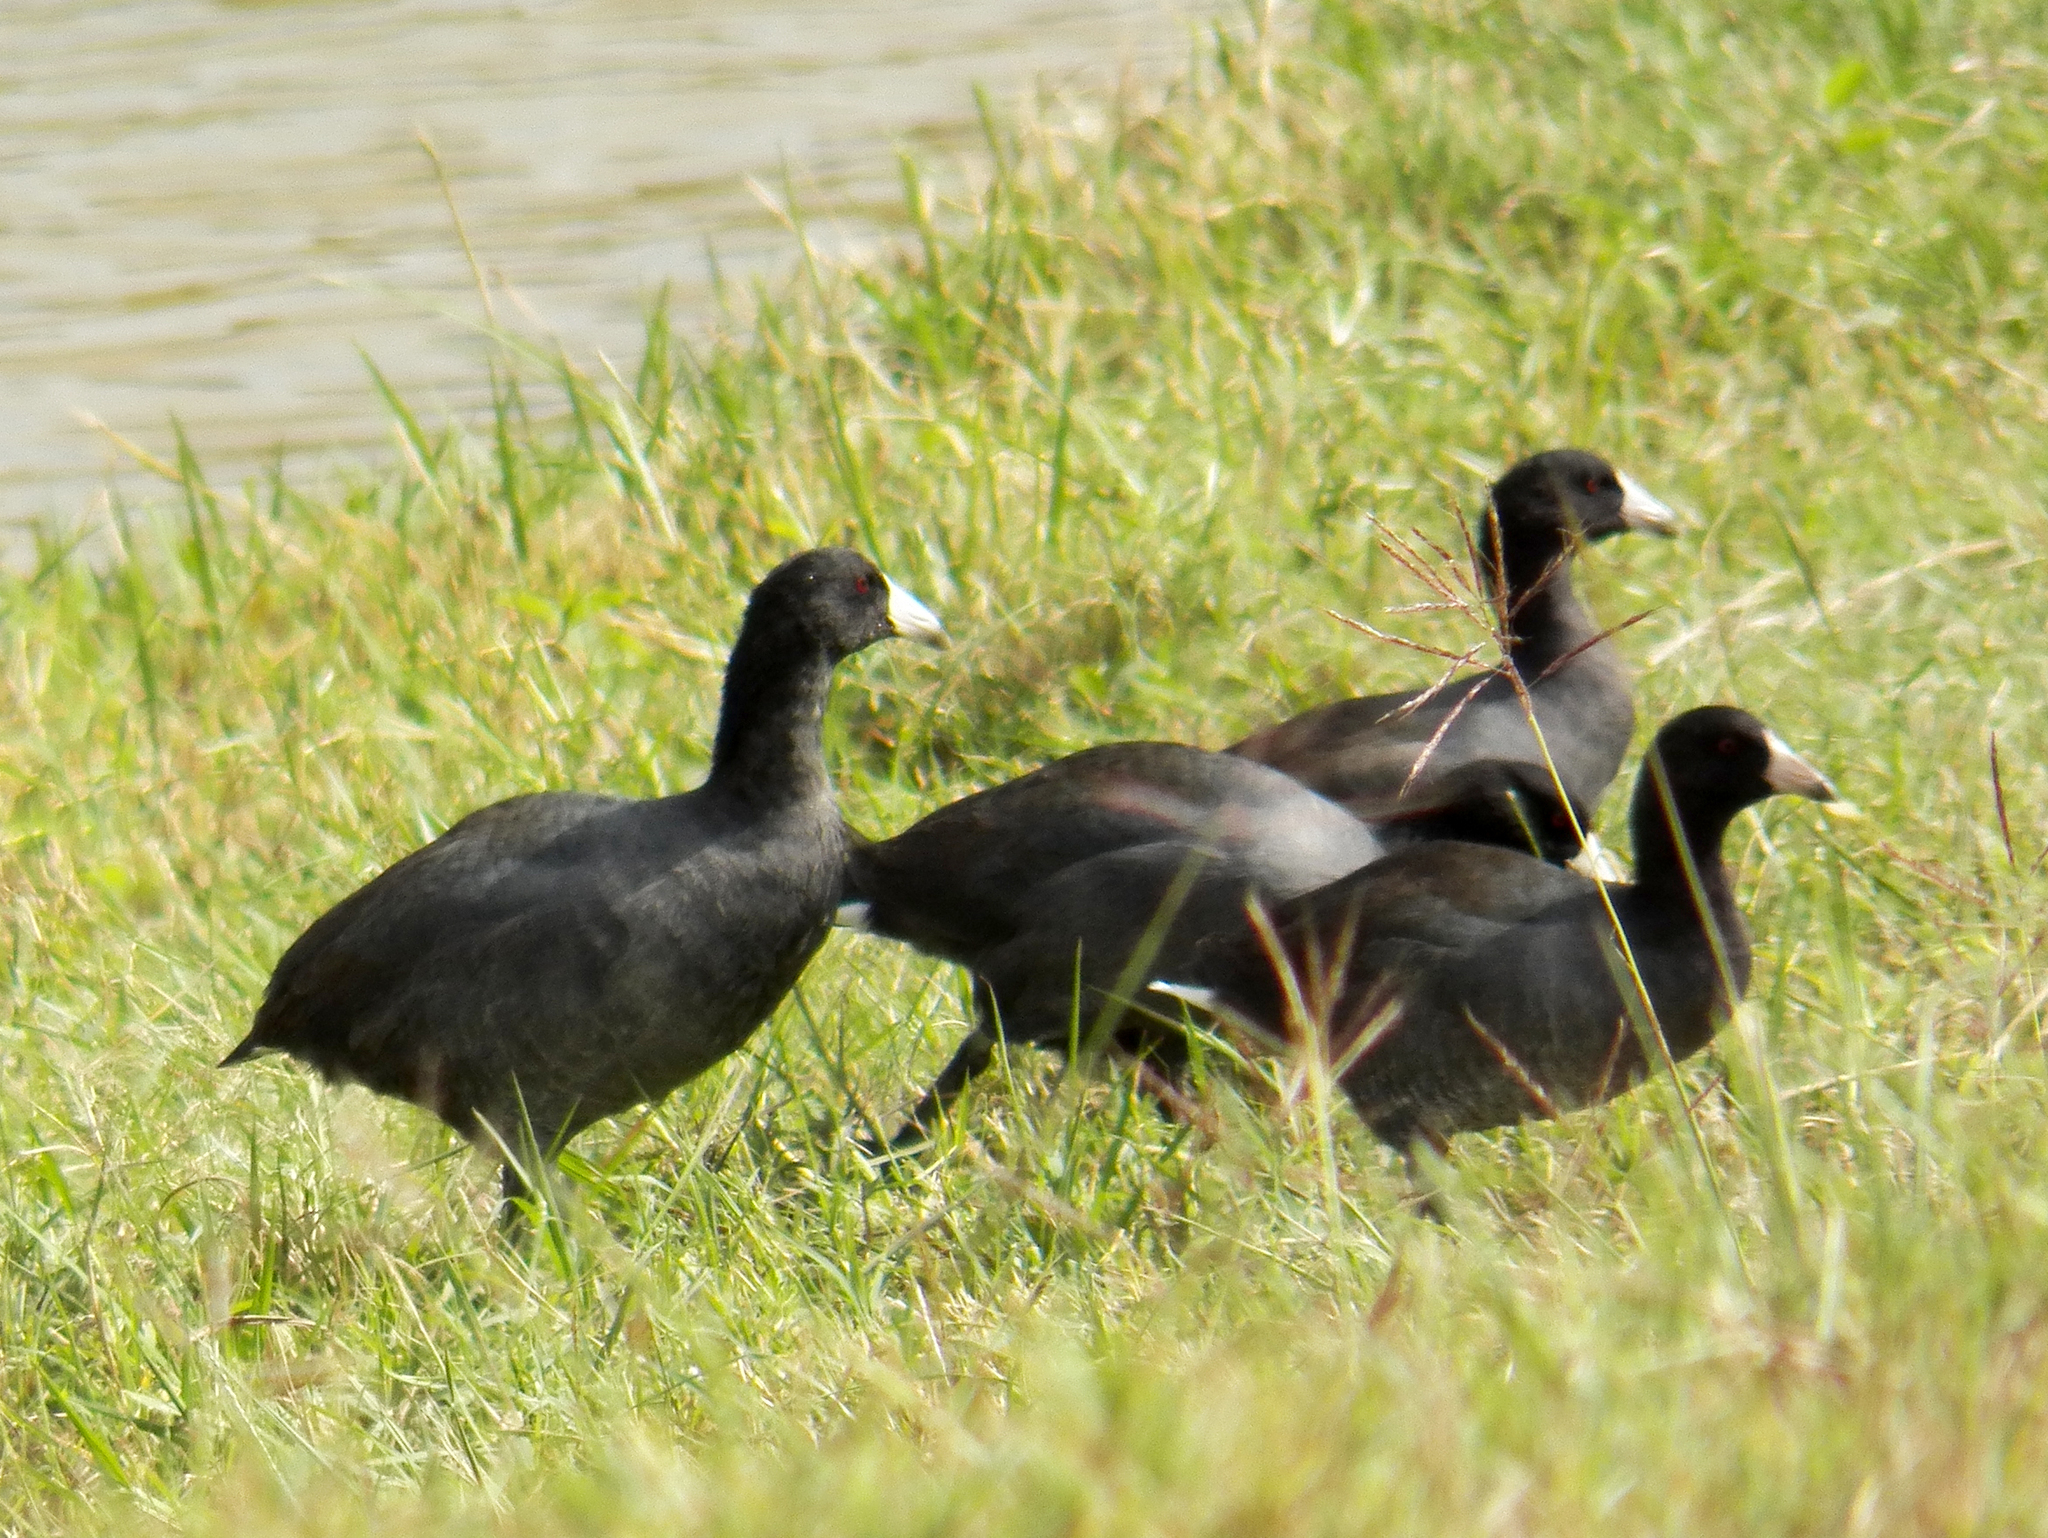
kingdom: Animalia
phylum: Chordata
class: Aves
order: Gruiformes
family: Rallidae
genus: Fulica
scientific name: Fulica americana
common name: American coot
